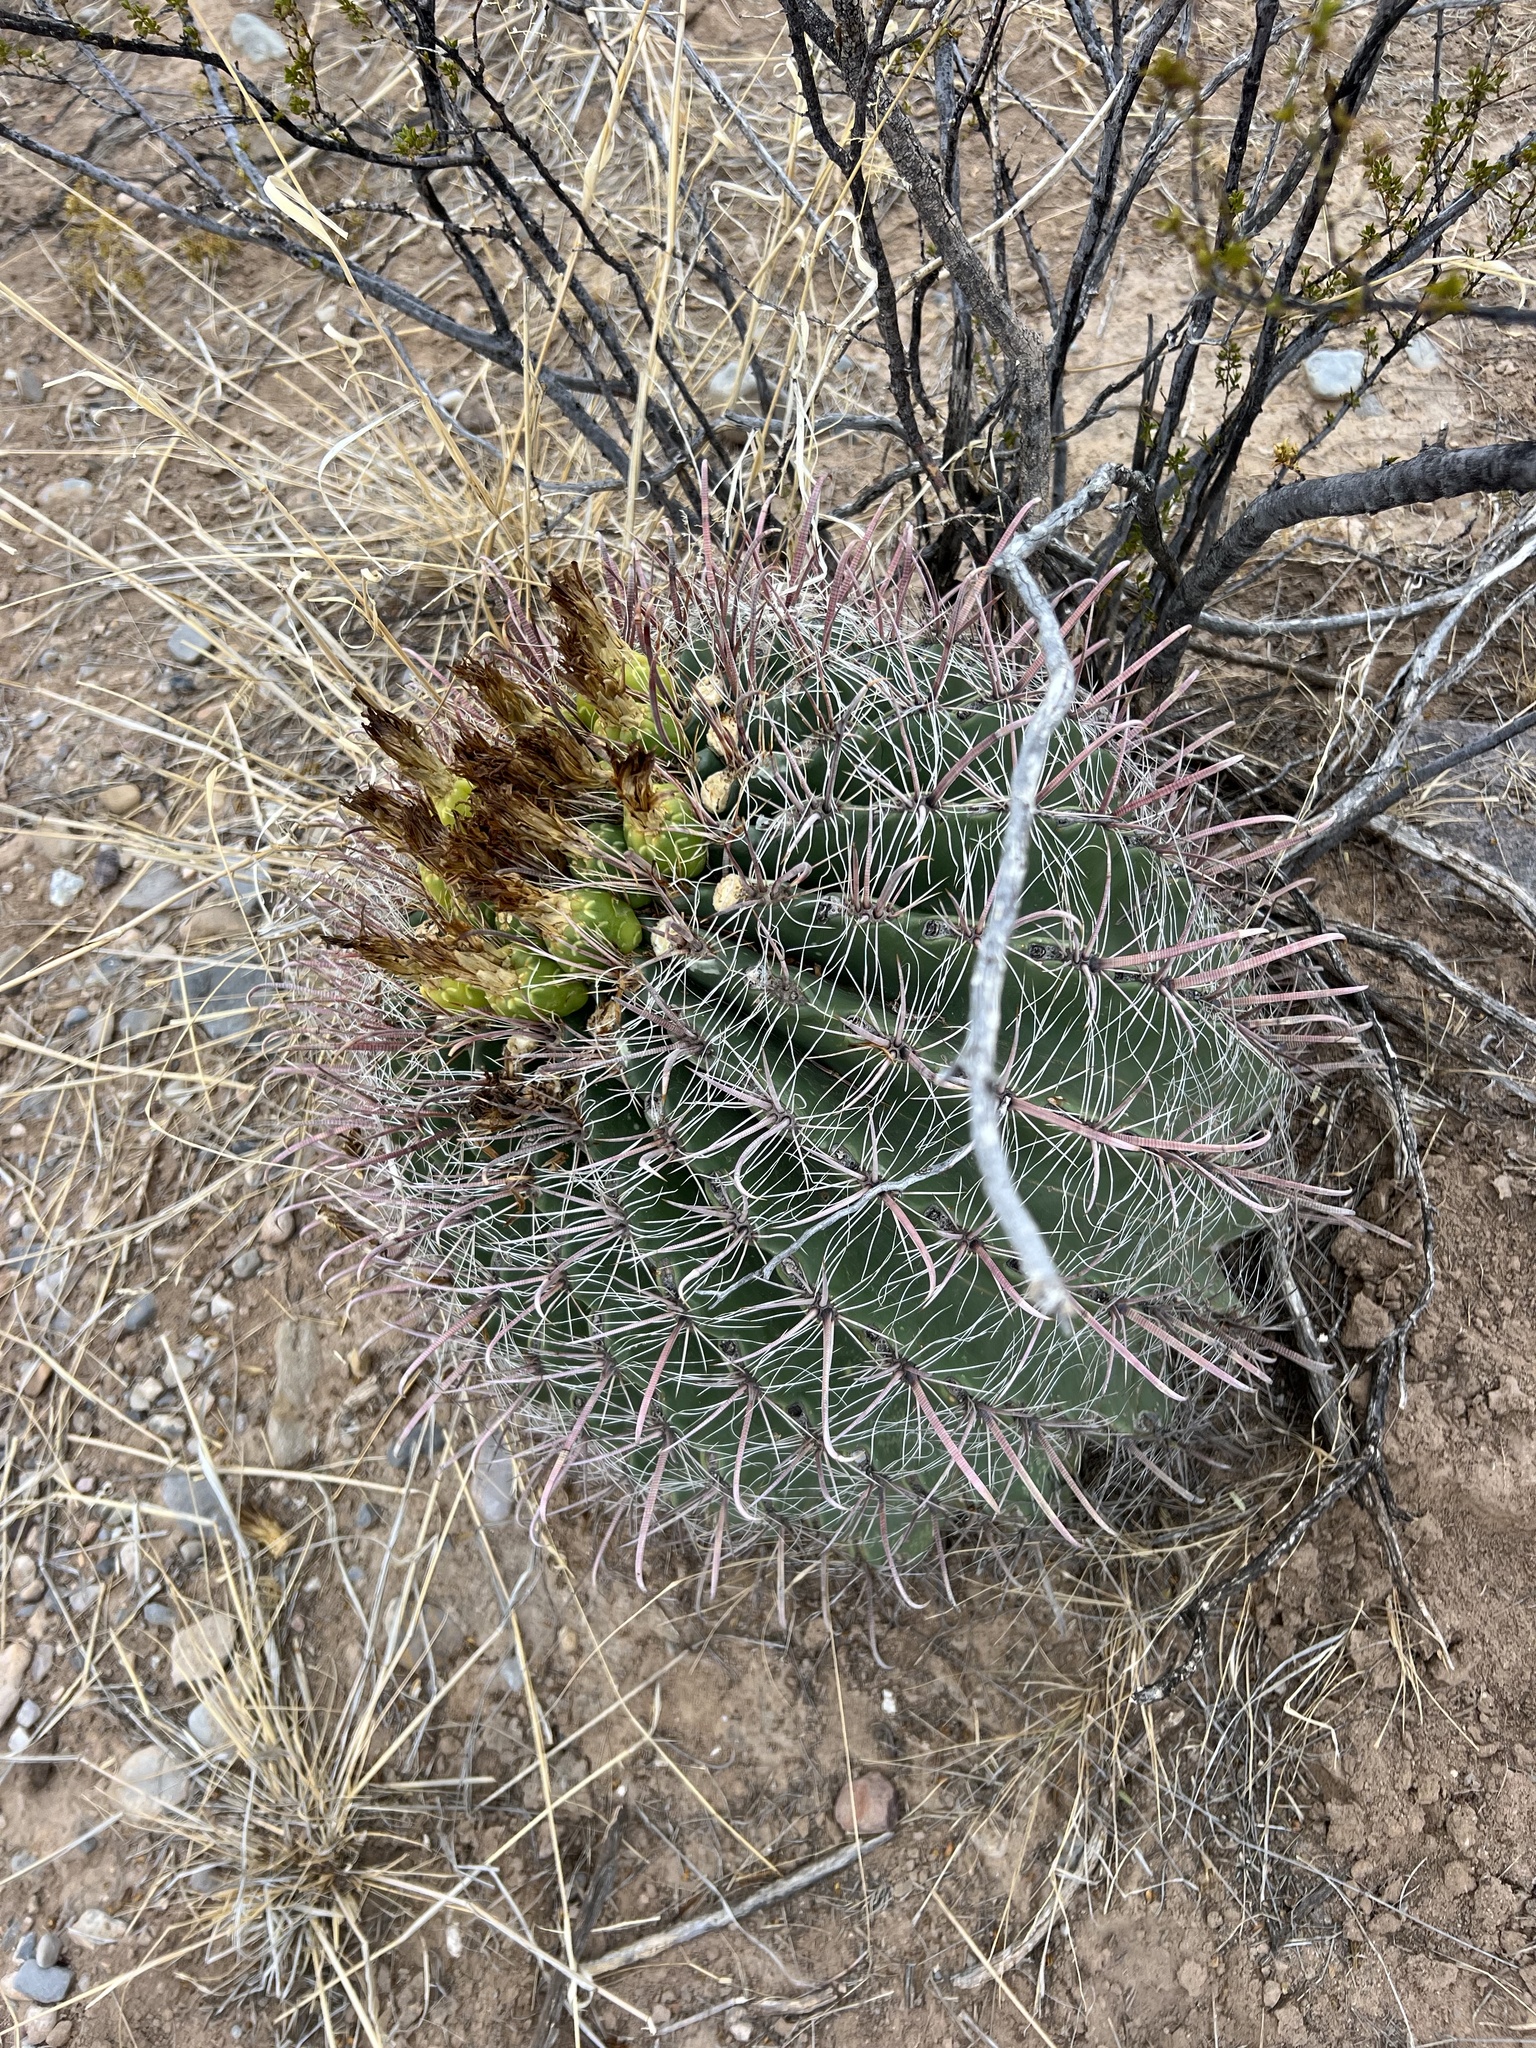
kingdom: Plantae
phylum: Tracheophyta
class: Magnoliopsida
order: Caryophyllales
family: Cactaceae
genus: Ferocactus
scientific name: Ferocactus wislizeni
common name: Candy barrel cactus
